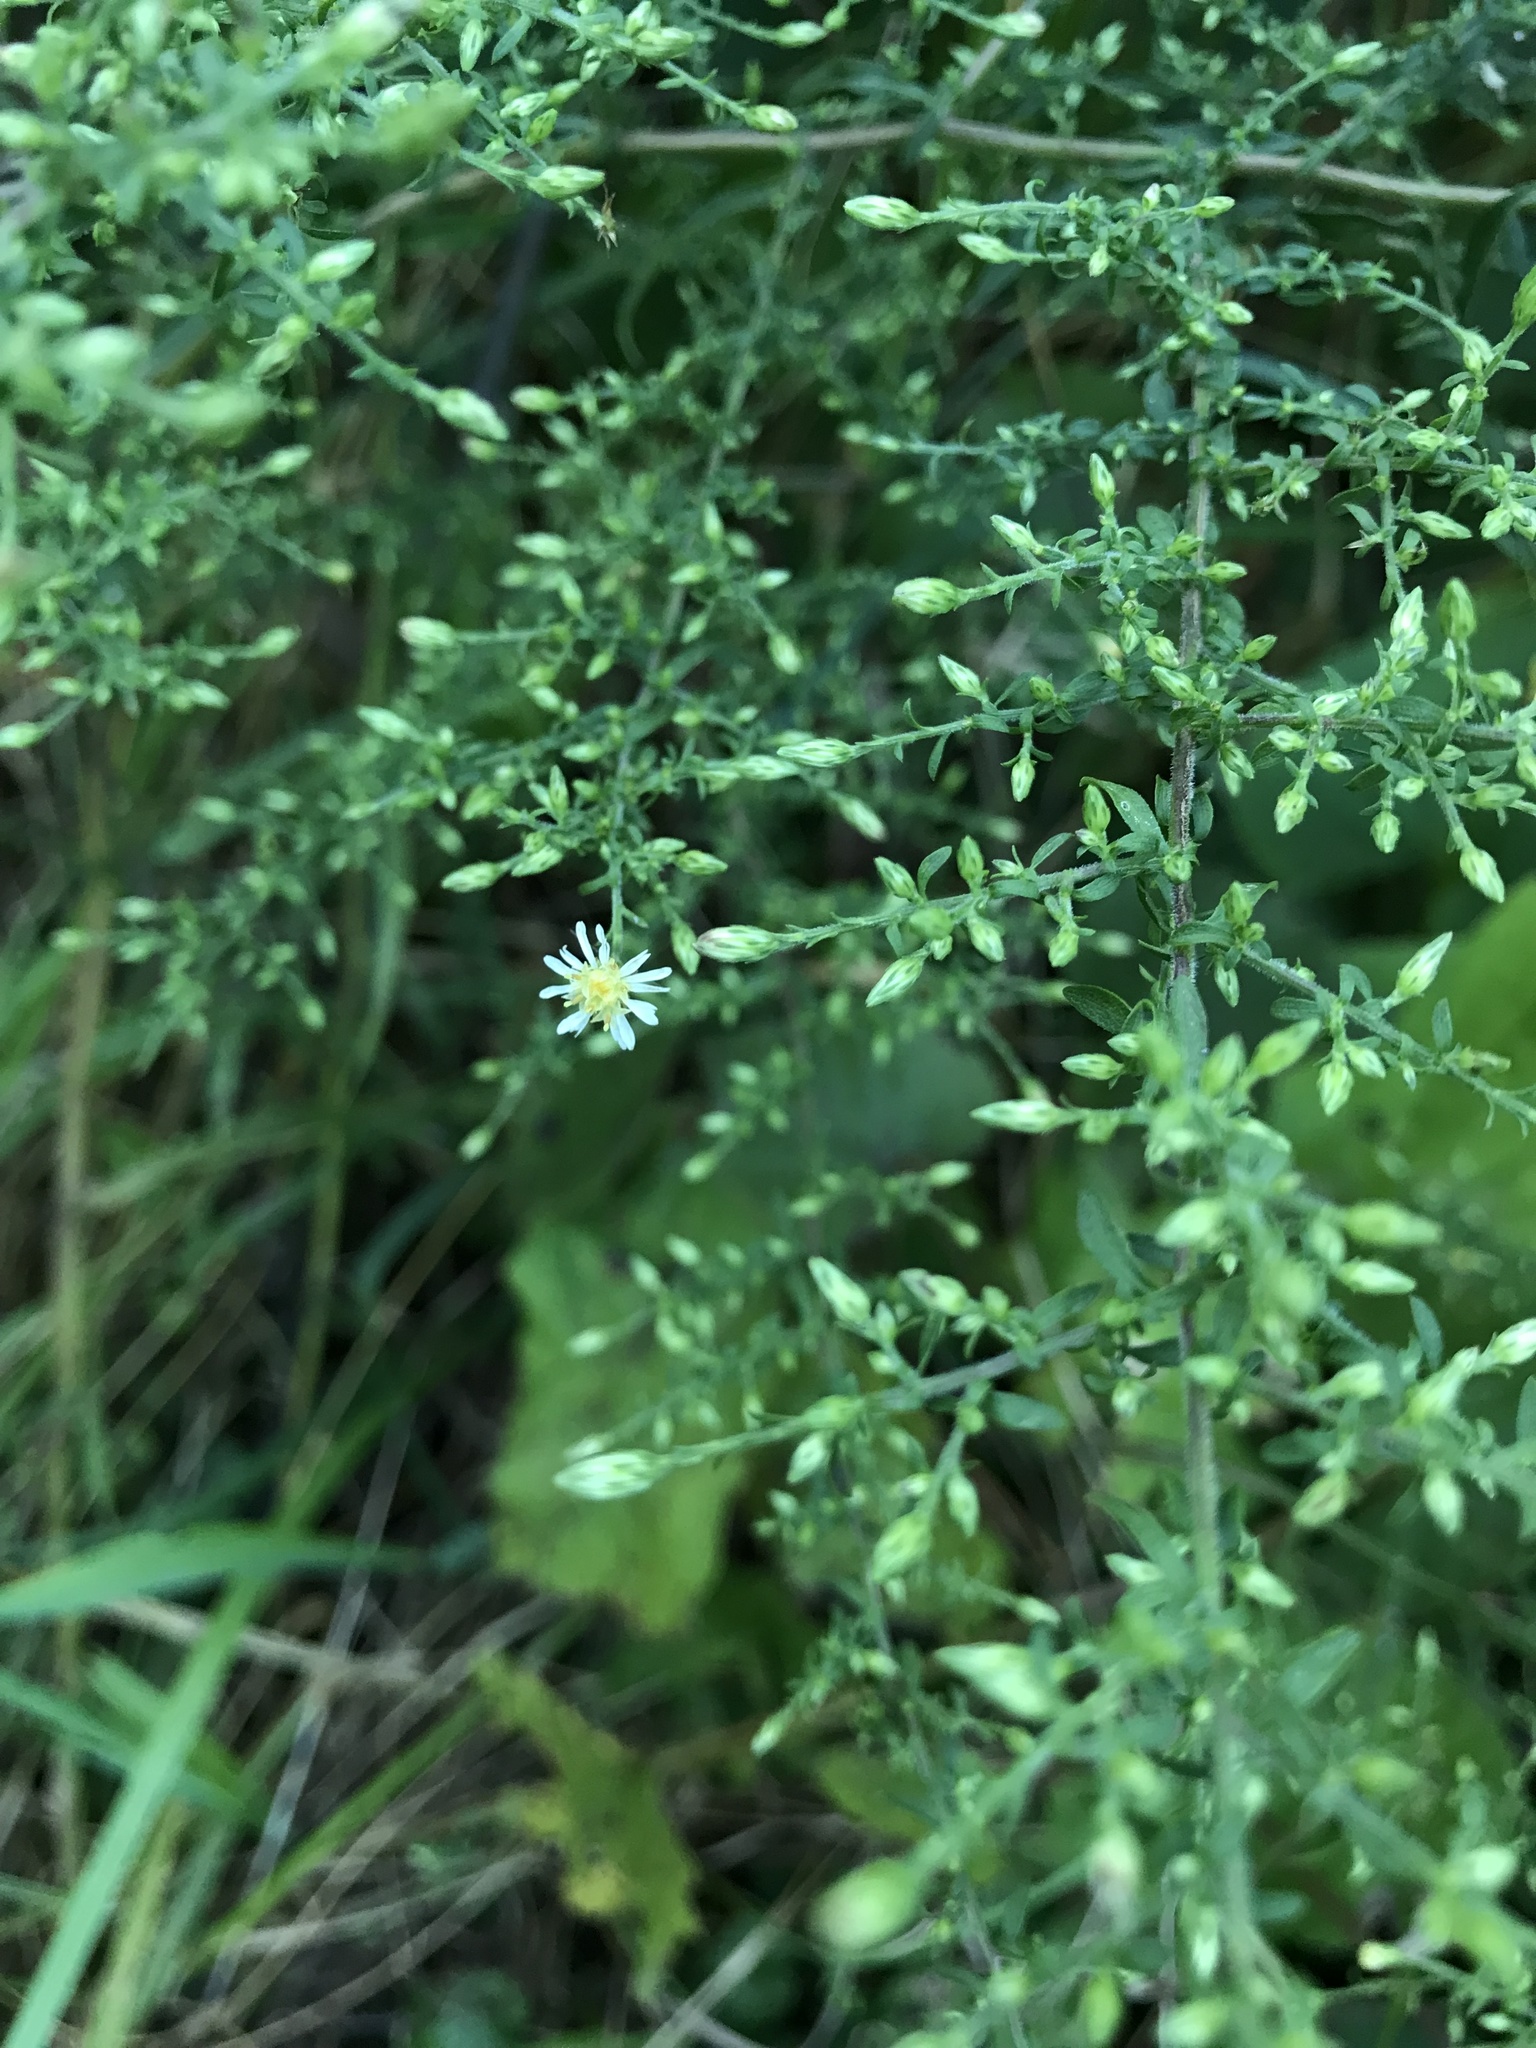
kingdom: Plantae
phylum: Tracheophyta
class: Magnoliopsida
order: Asterales
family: Asteraceae
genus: Symphyotrichum
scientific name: Symphyotrichum lateriflorum
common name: Calico aster
